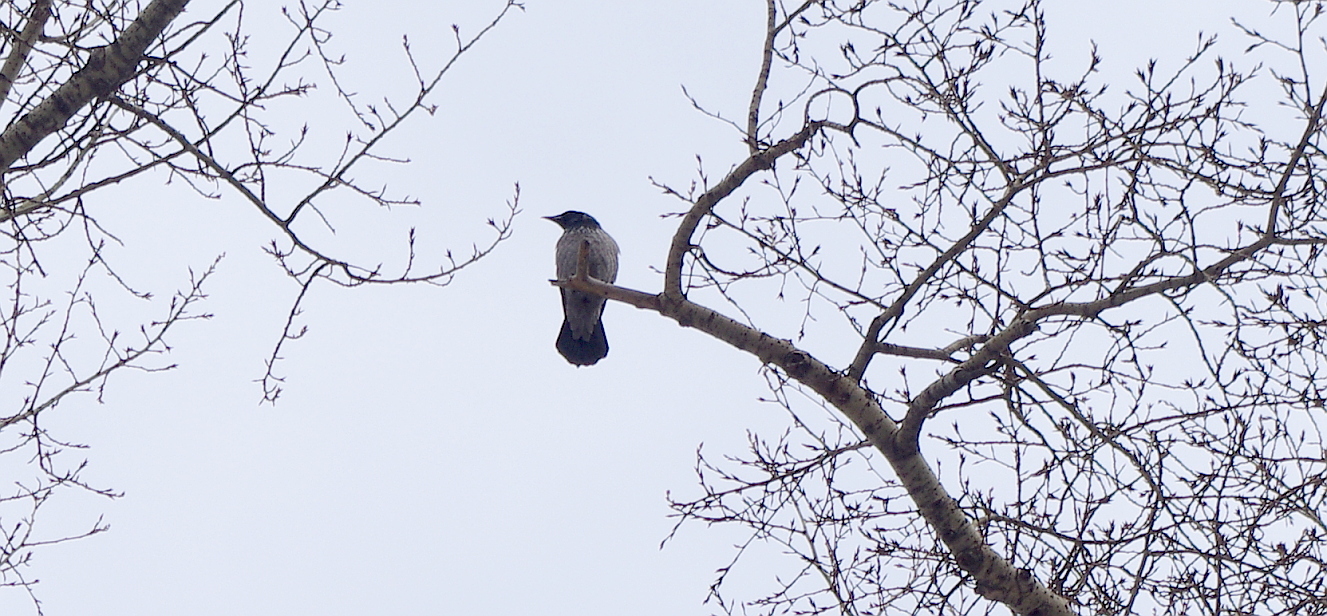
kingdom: Animalia
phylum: Chordata
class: Aves
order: Passeriformes
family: Corvidae
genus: Corvus
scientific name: Corvus cornix
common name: Hooded crow
